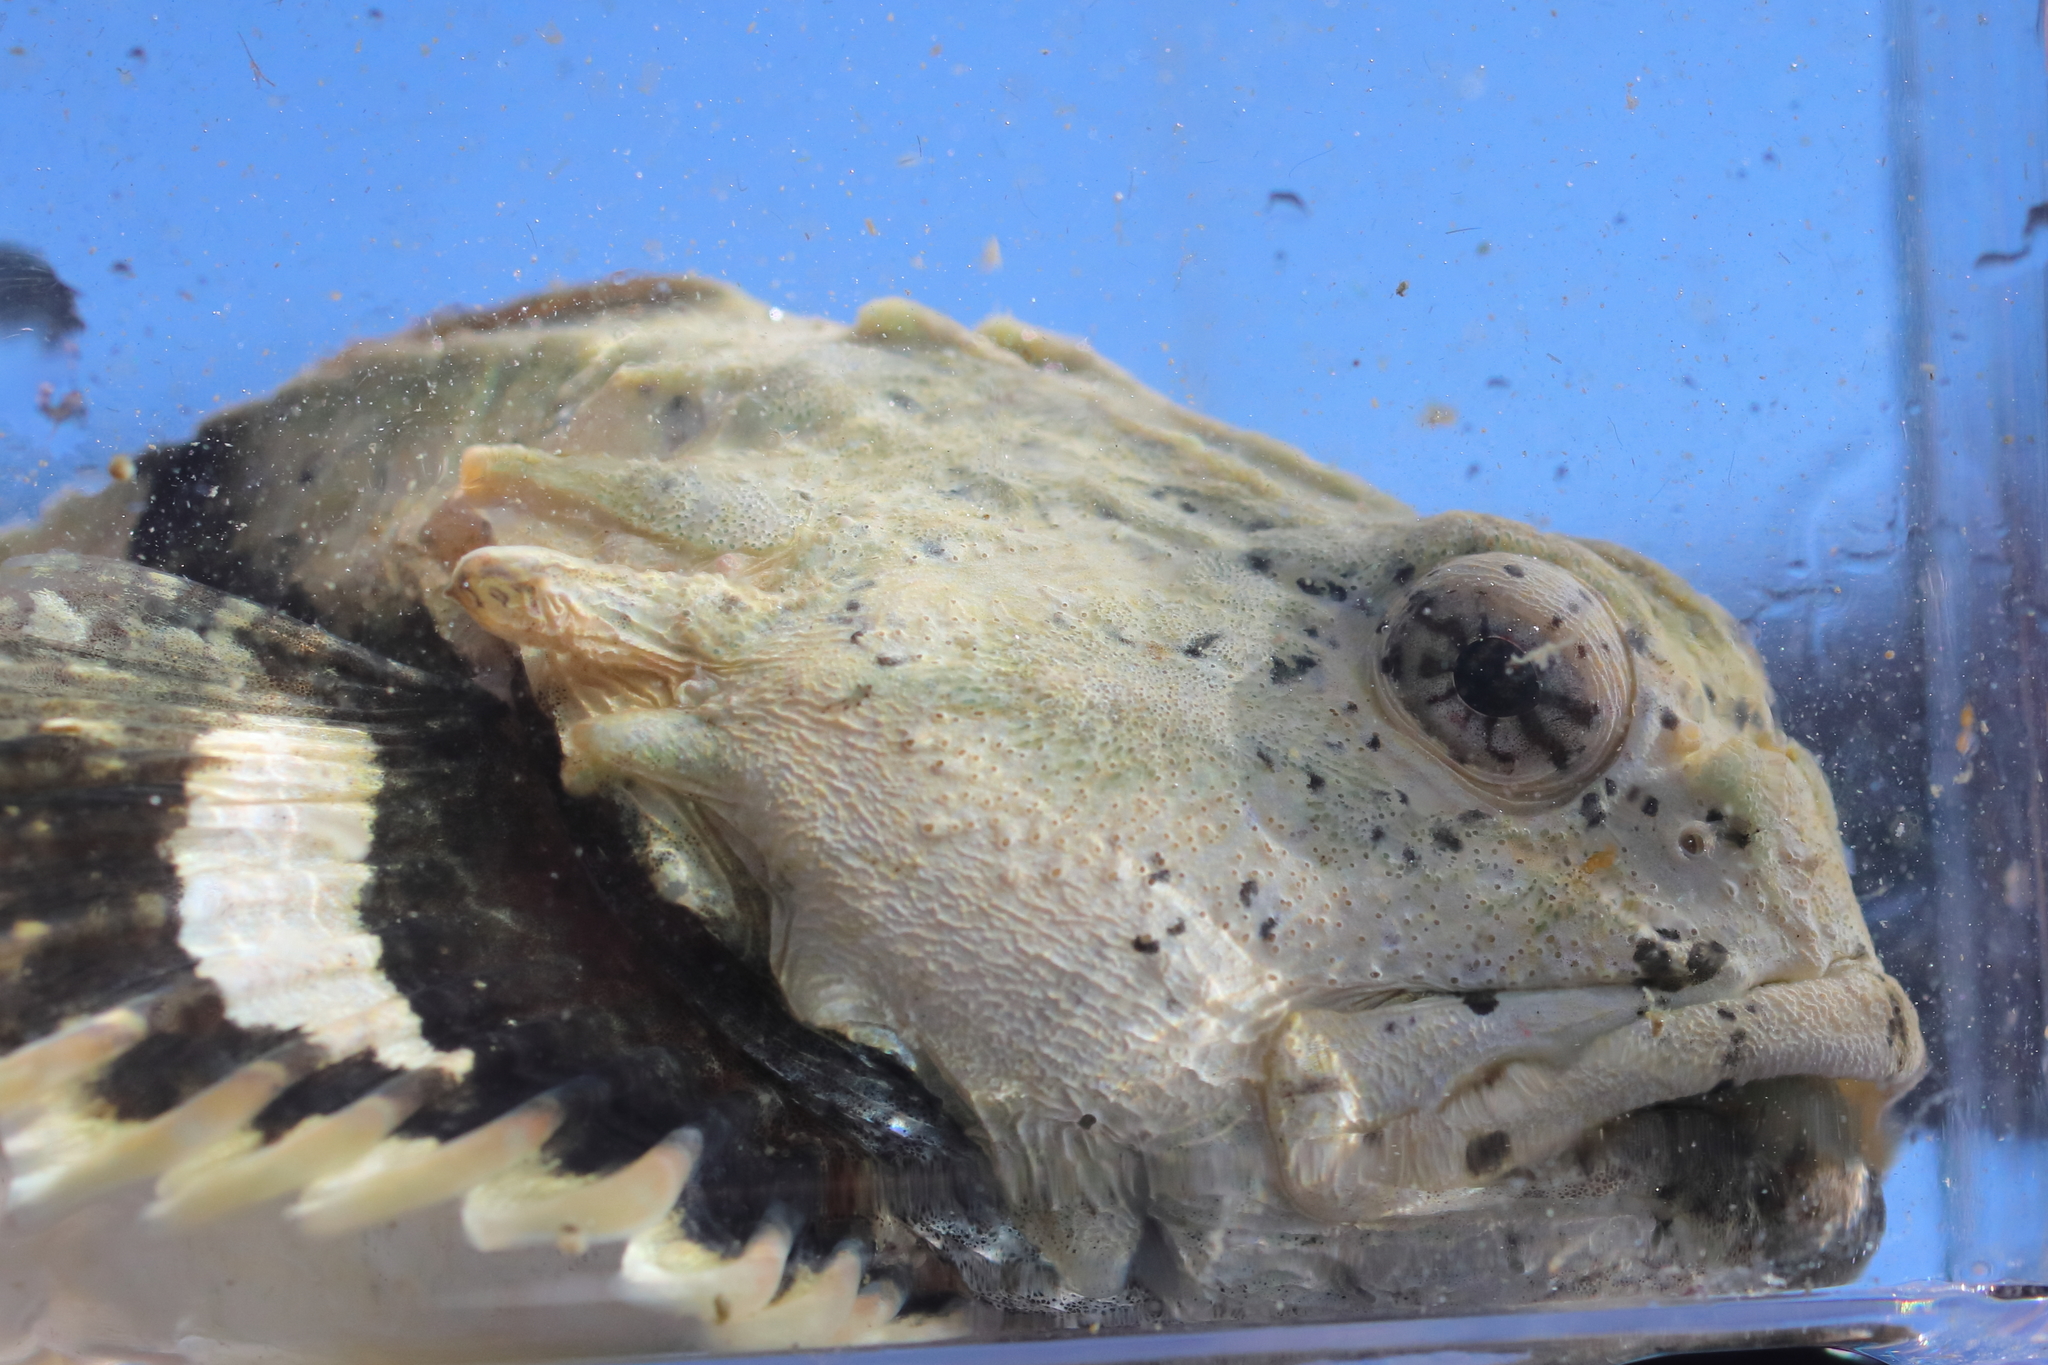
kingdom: Animalia
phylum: Chordata
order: Scorpaeniformes
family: Cottidae
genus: Enophrys
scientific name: Enophrys bison
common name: Buffalo sculpin
